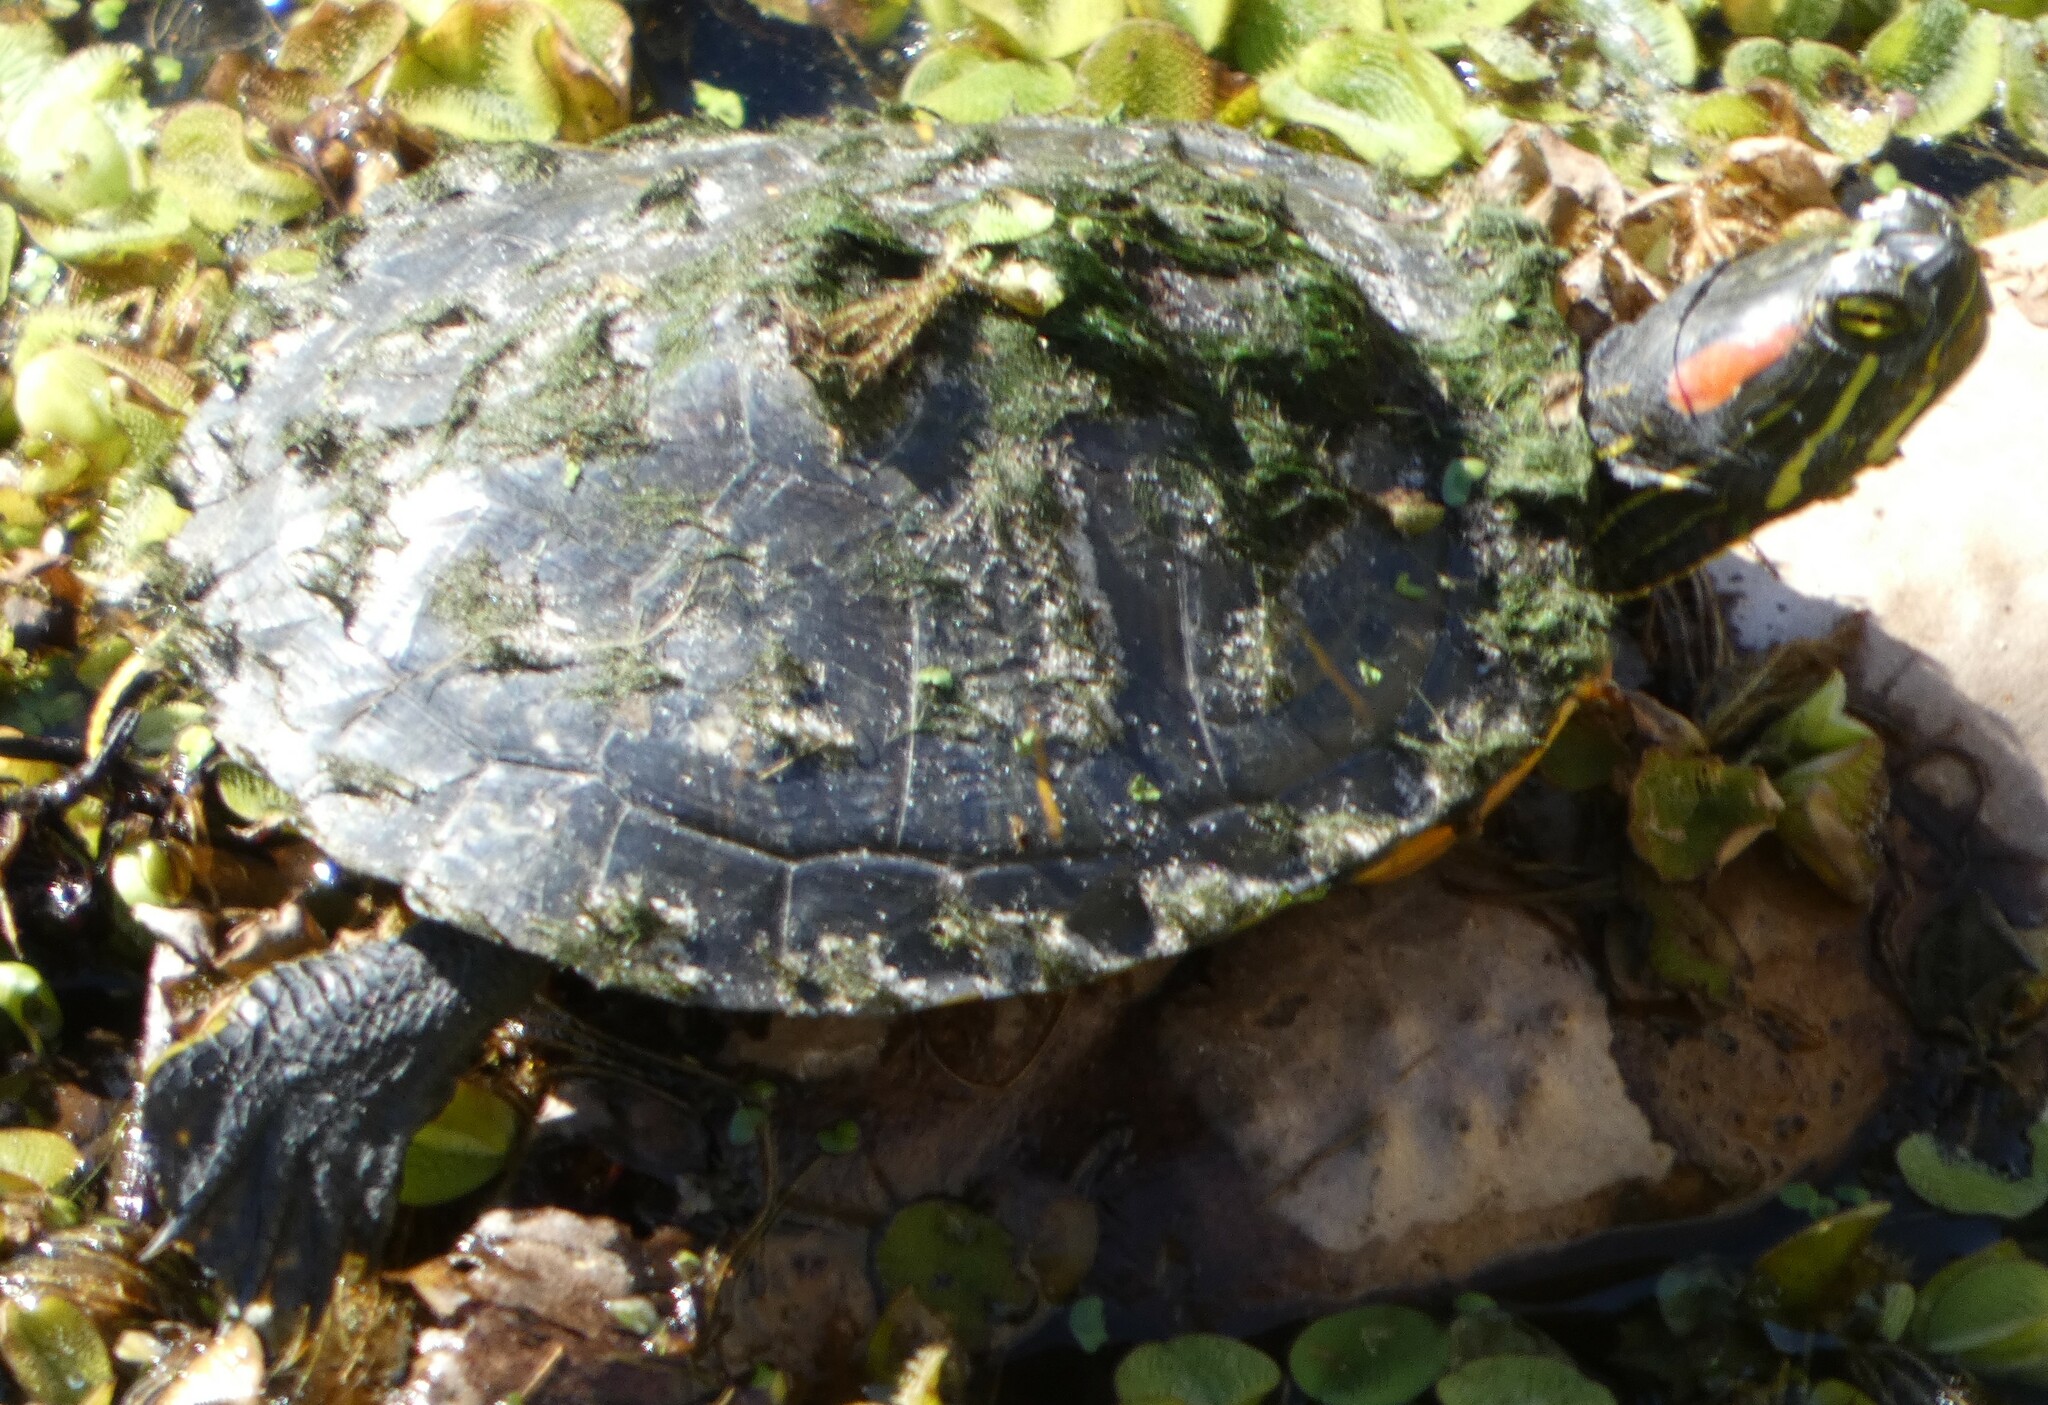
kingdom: Animalia
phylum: Chordata
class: Testudines
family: Emydidae
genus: Trachemys
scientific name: Trachemys scripta
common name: Slider
